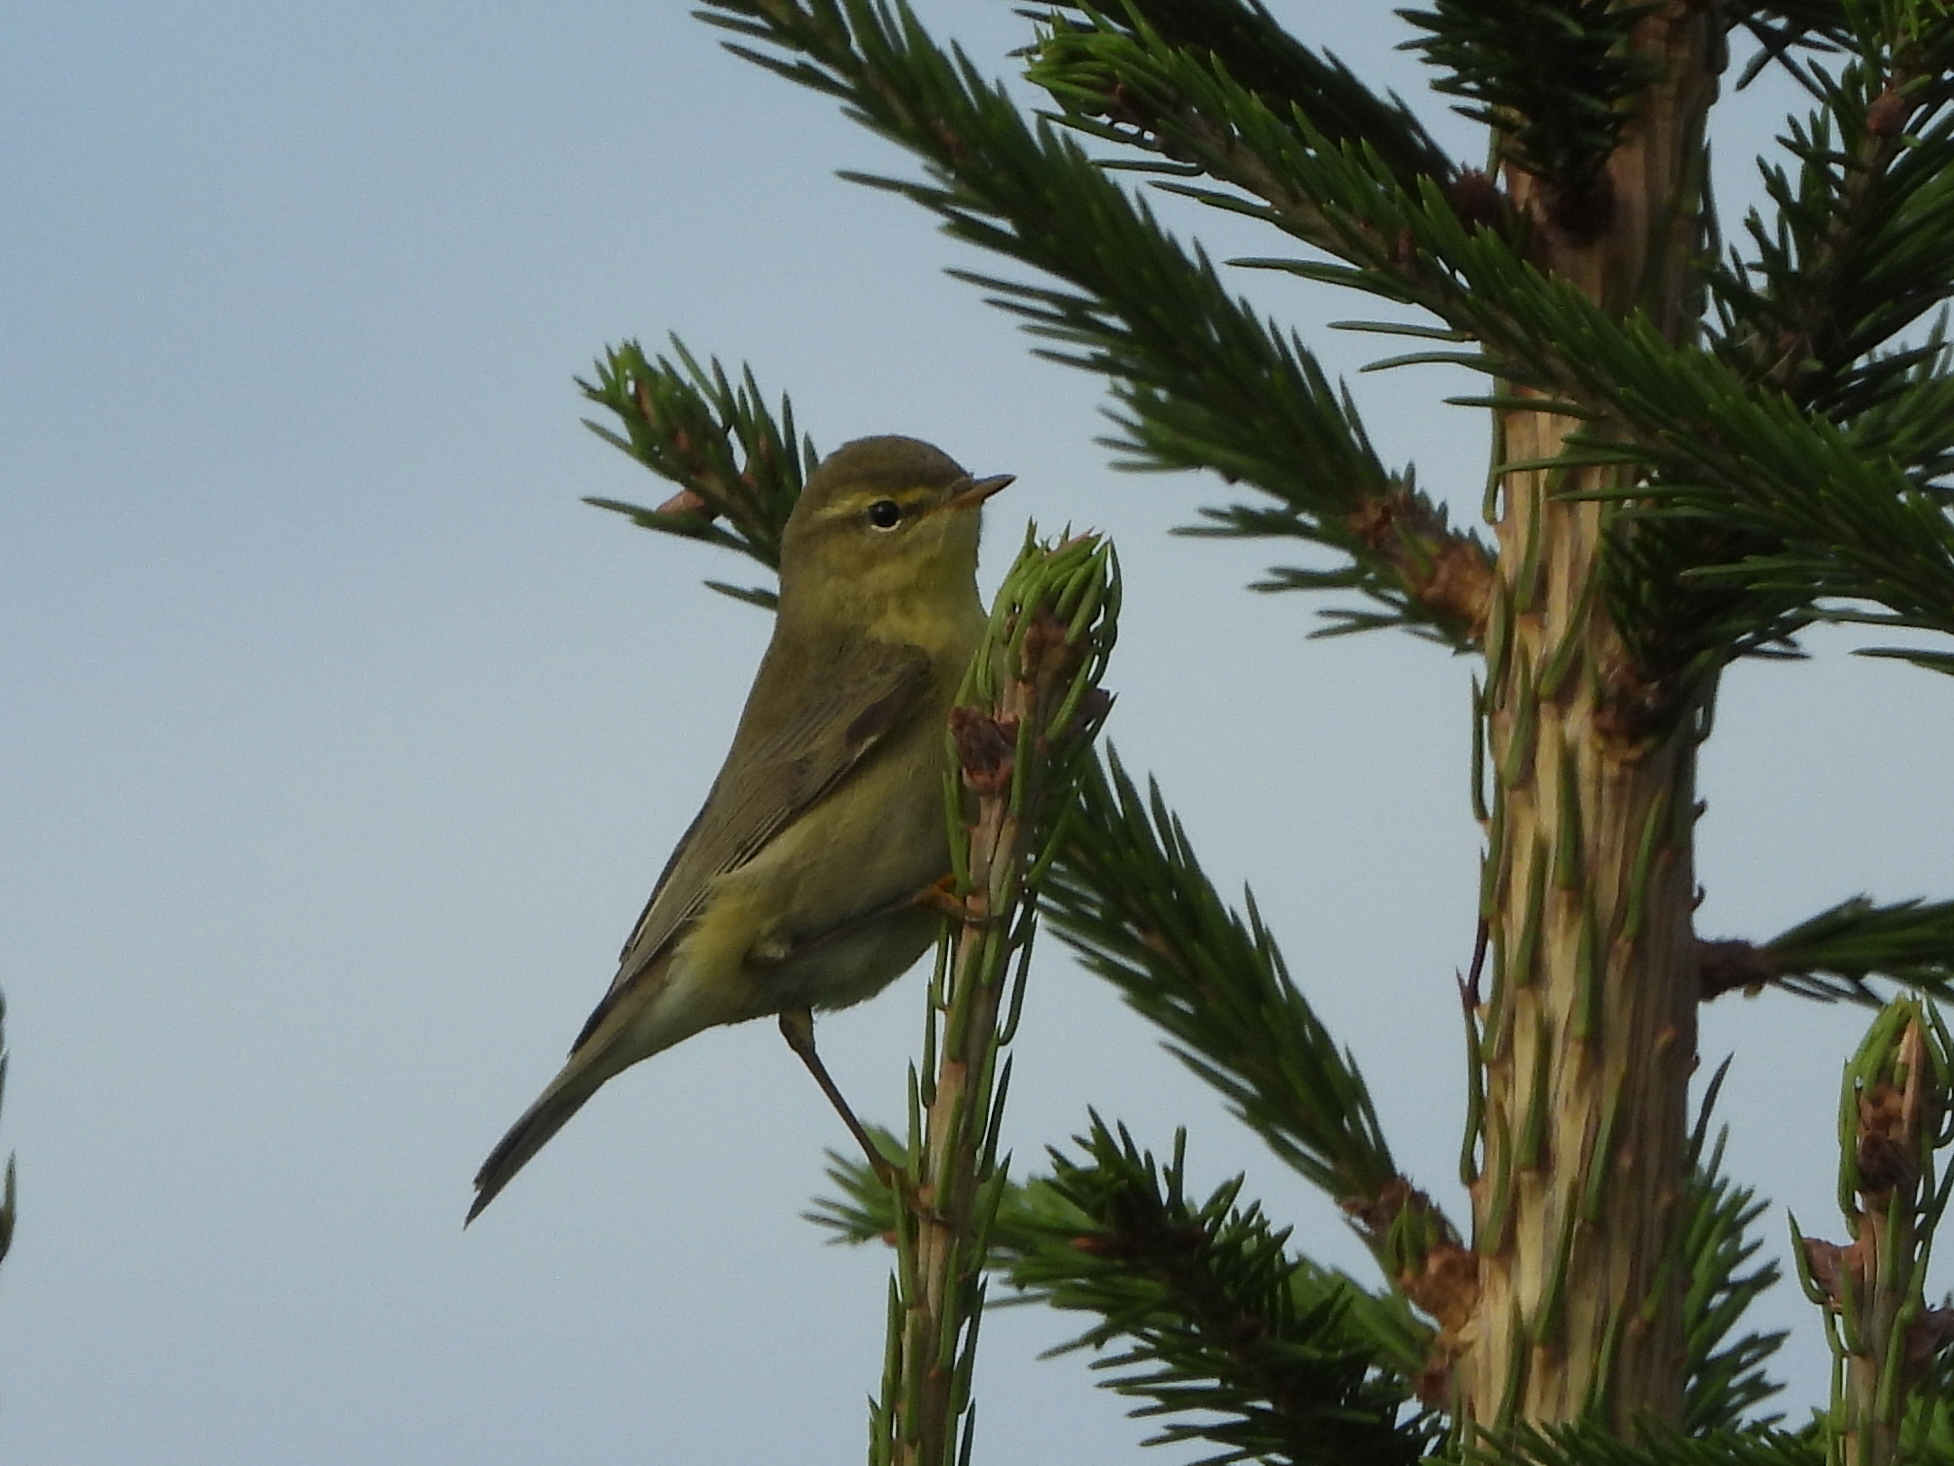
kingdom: Animalia
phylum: Chordata
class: Aves
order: Passeriformes
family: Phylloscopidae
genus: Phylloscopus
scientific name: Phylloscopus collybita
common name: Common chiffchaff
